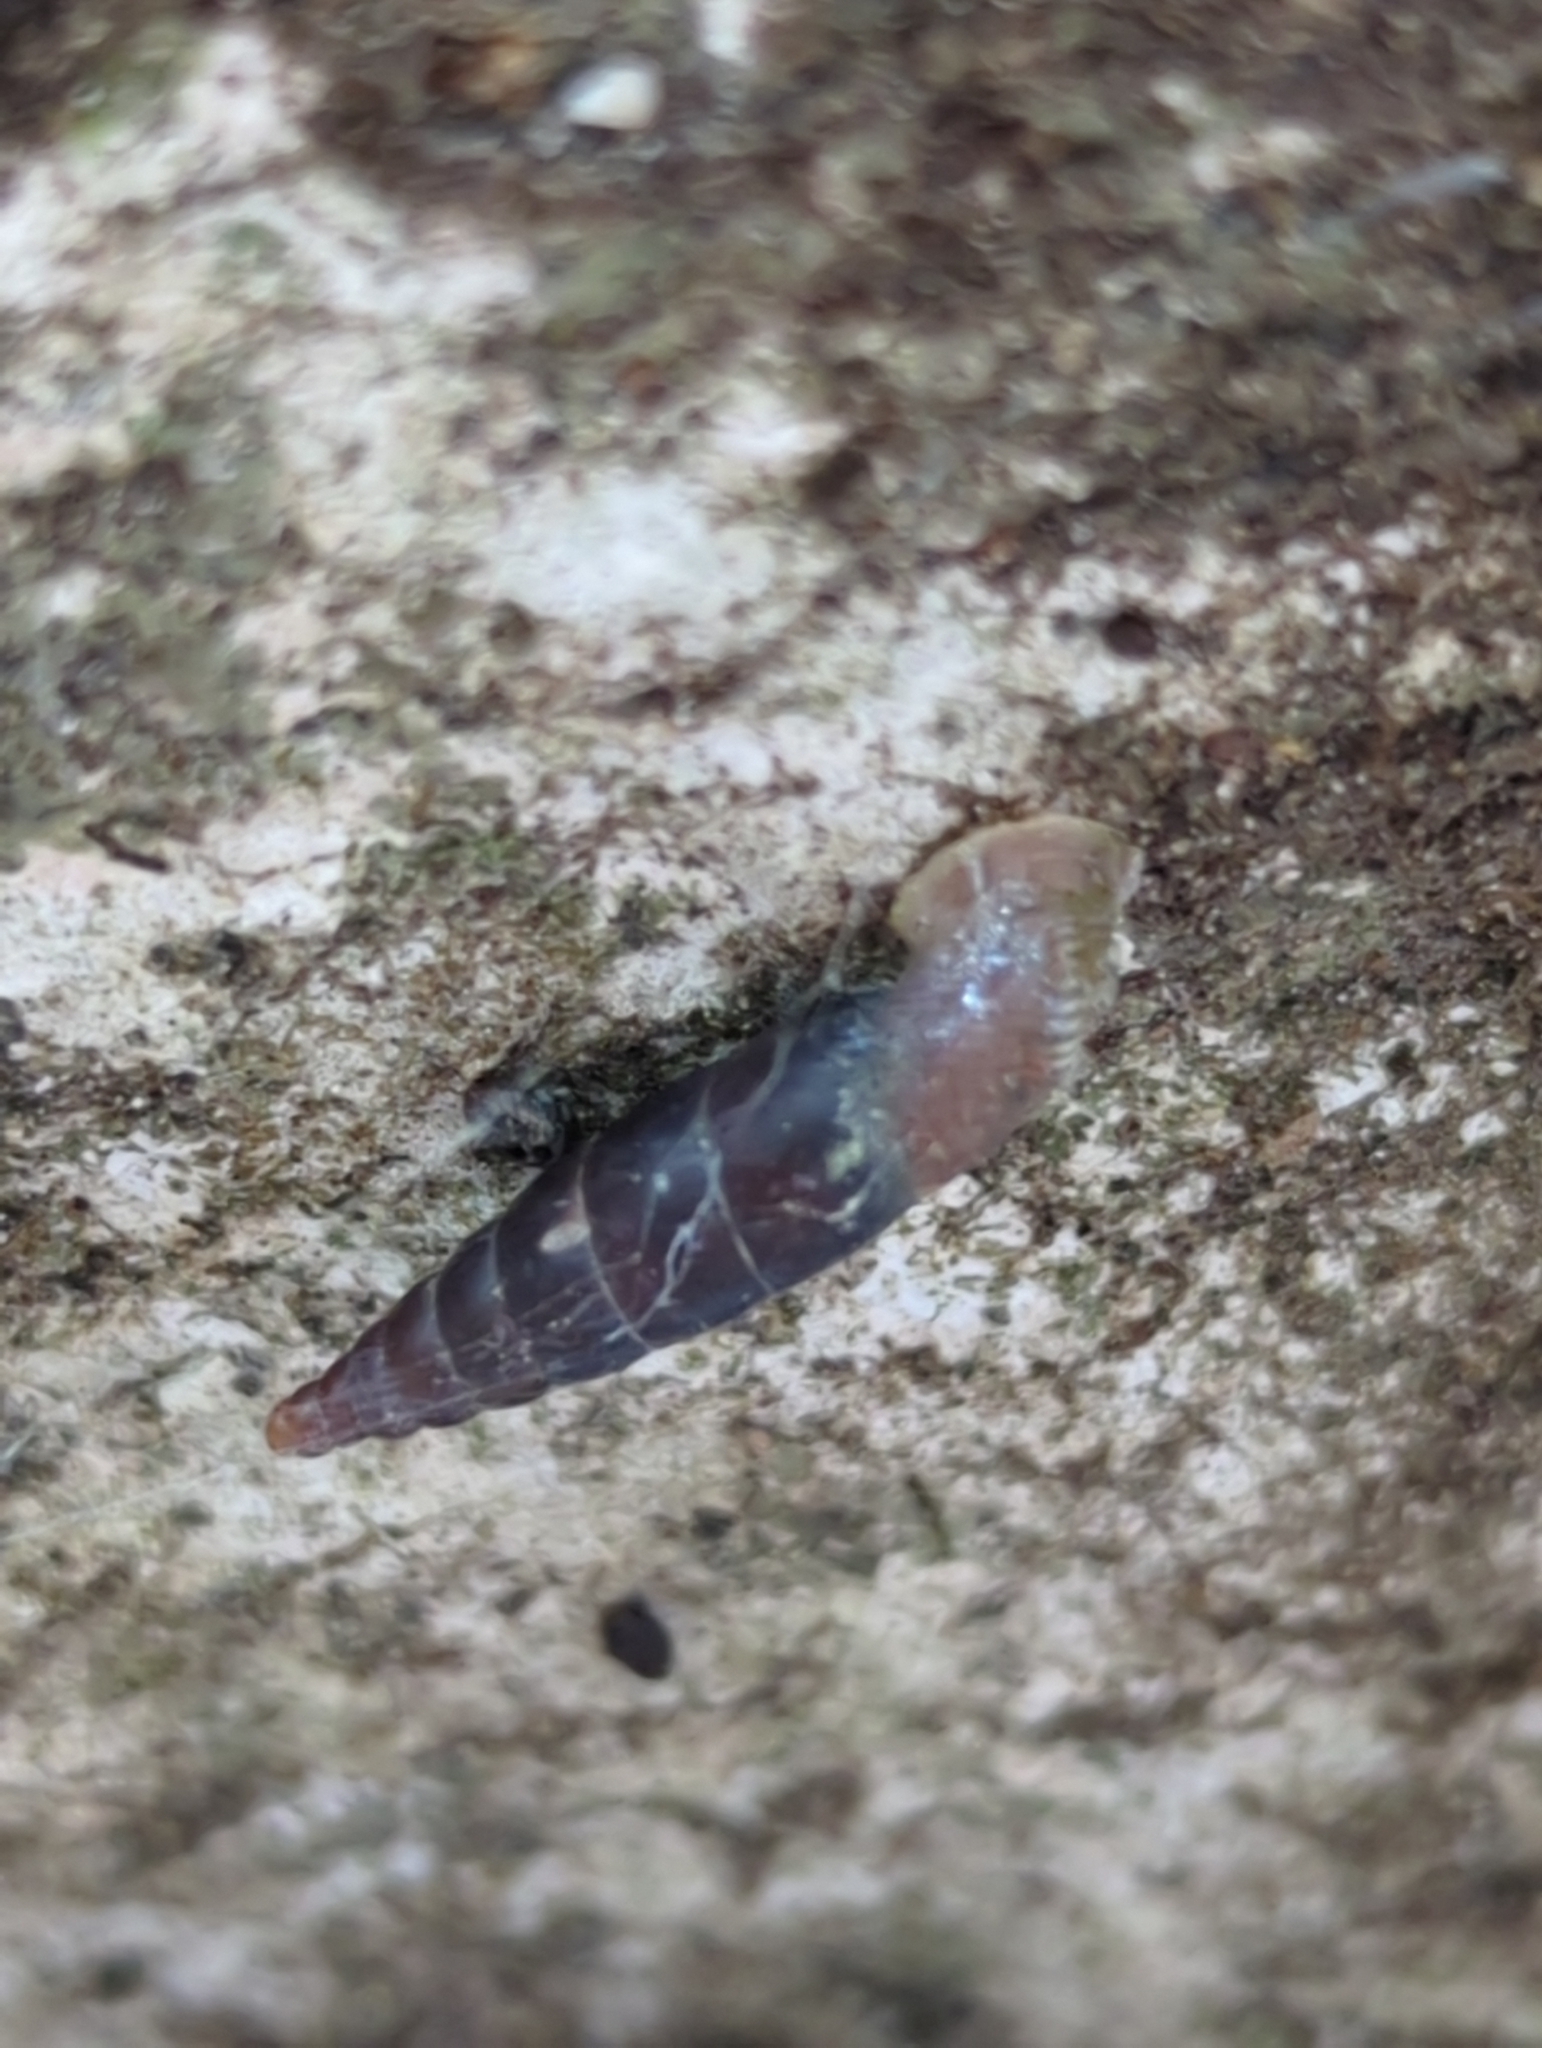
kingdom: Animalia
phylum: Mollusca
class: Gastropoda
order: Stylommatophora
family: Clausiliidae
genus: Idyla
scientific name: Idyla bicristata
